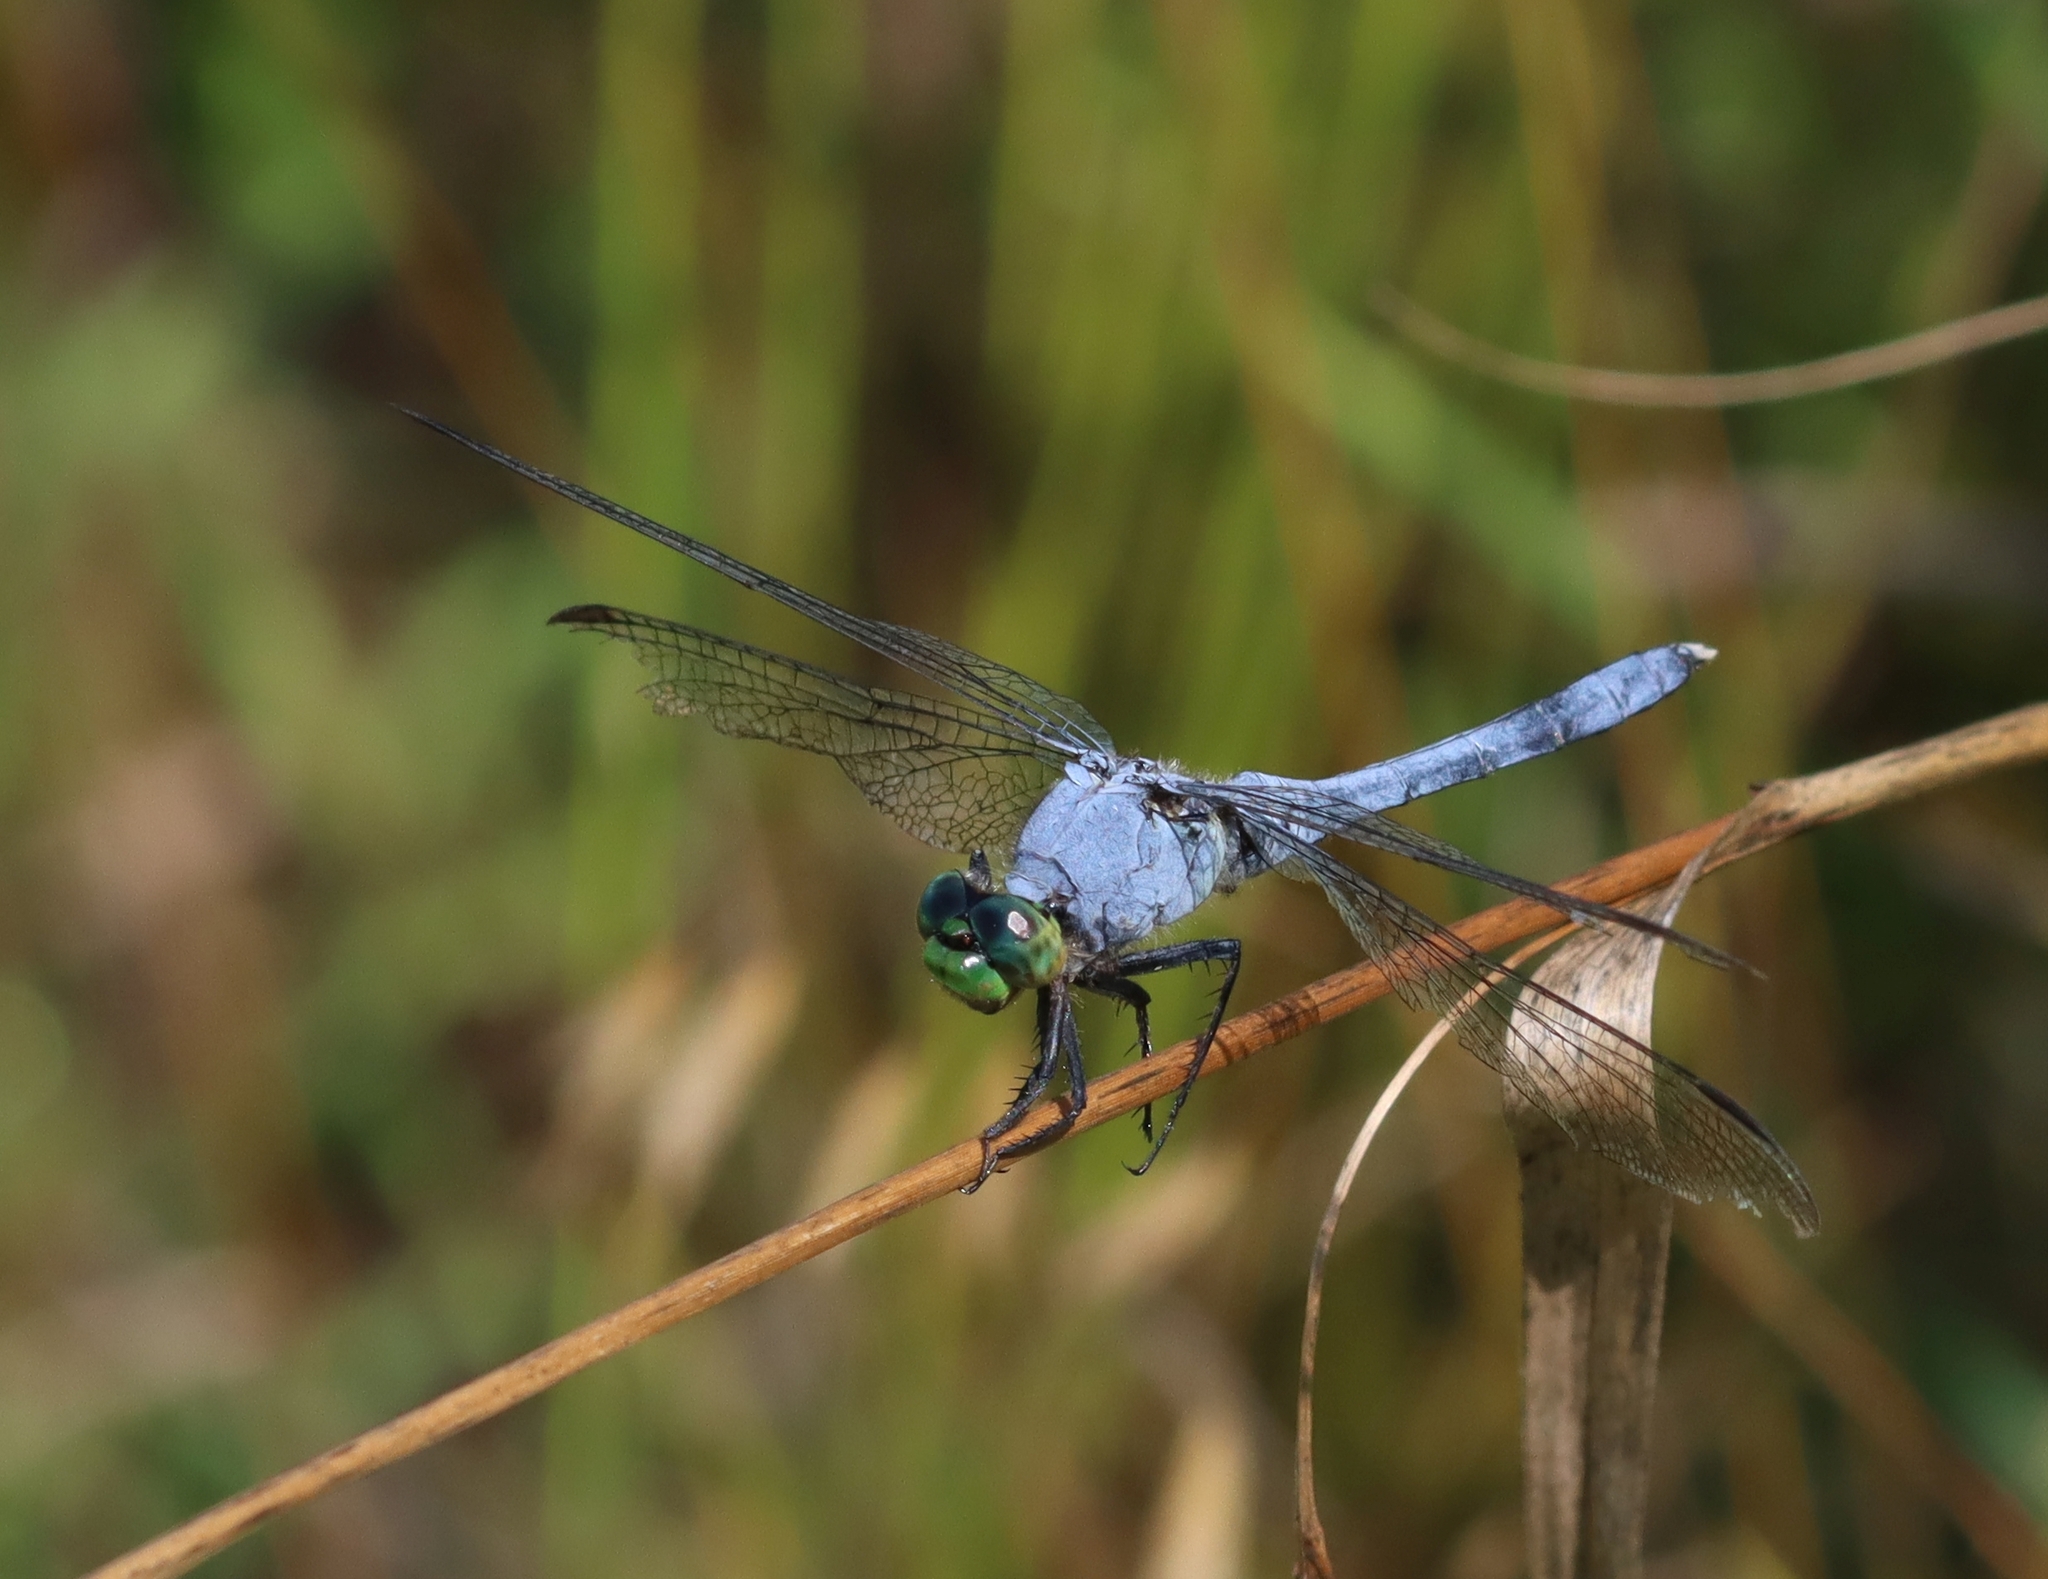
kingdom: Animalia
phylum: Arthropoda
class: Insecta
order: Odonata
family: Libellulidae
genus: Erythemis
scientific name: Erythemis simplicicollis
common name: Eastern pondhawk
